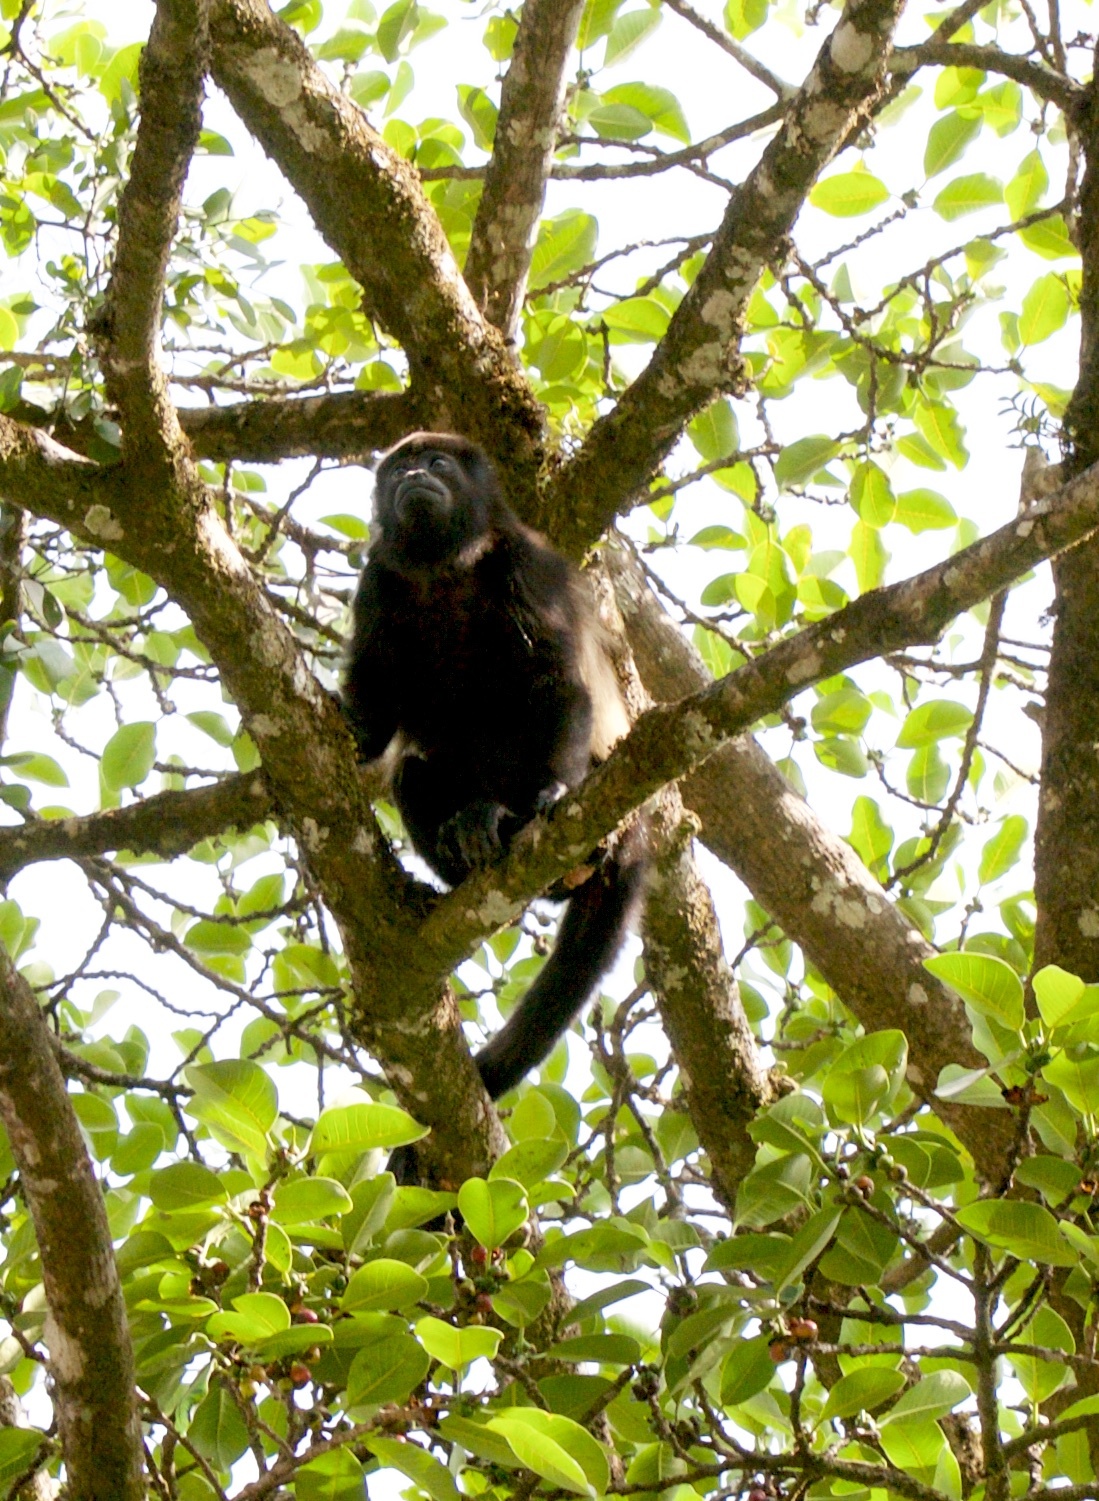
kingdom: Animalia
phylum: Chordata
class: Mammalia
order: Primates
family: Atelidae
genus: Alouatta
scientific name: Alouatta palliata
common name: Mantled howler
